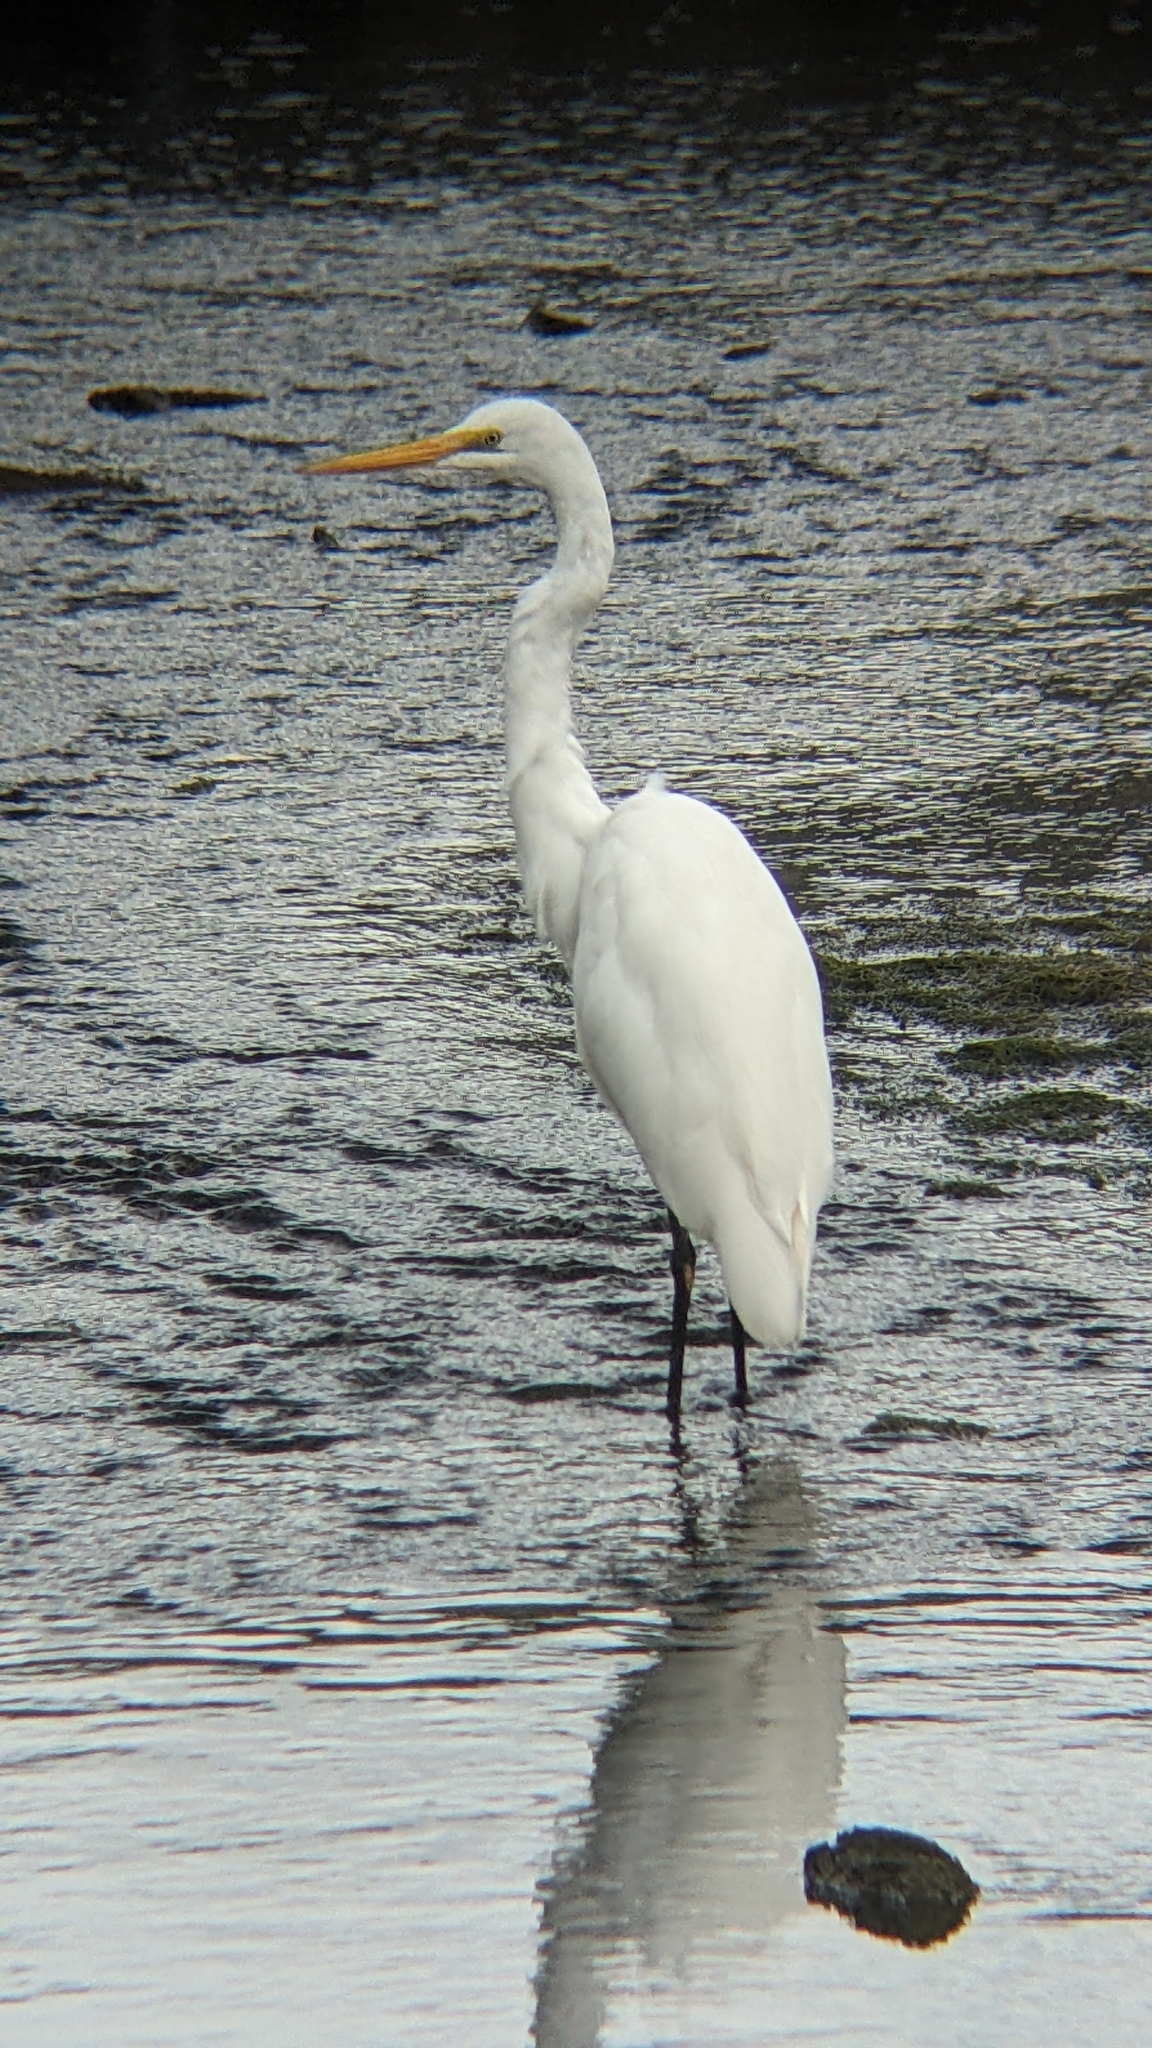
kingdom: Animalia
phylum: Chordata
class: Aves
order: Pelecaniformes
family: Ardeidae
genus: Ardea
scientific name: Ardea alba
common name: Great egret
